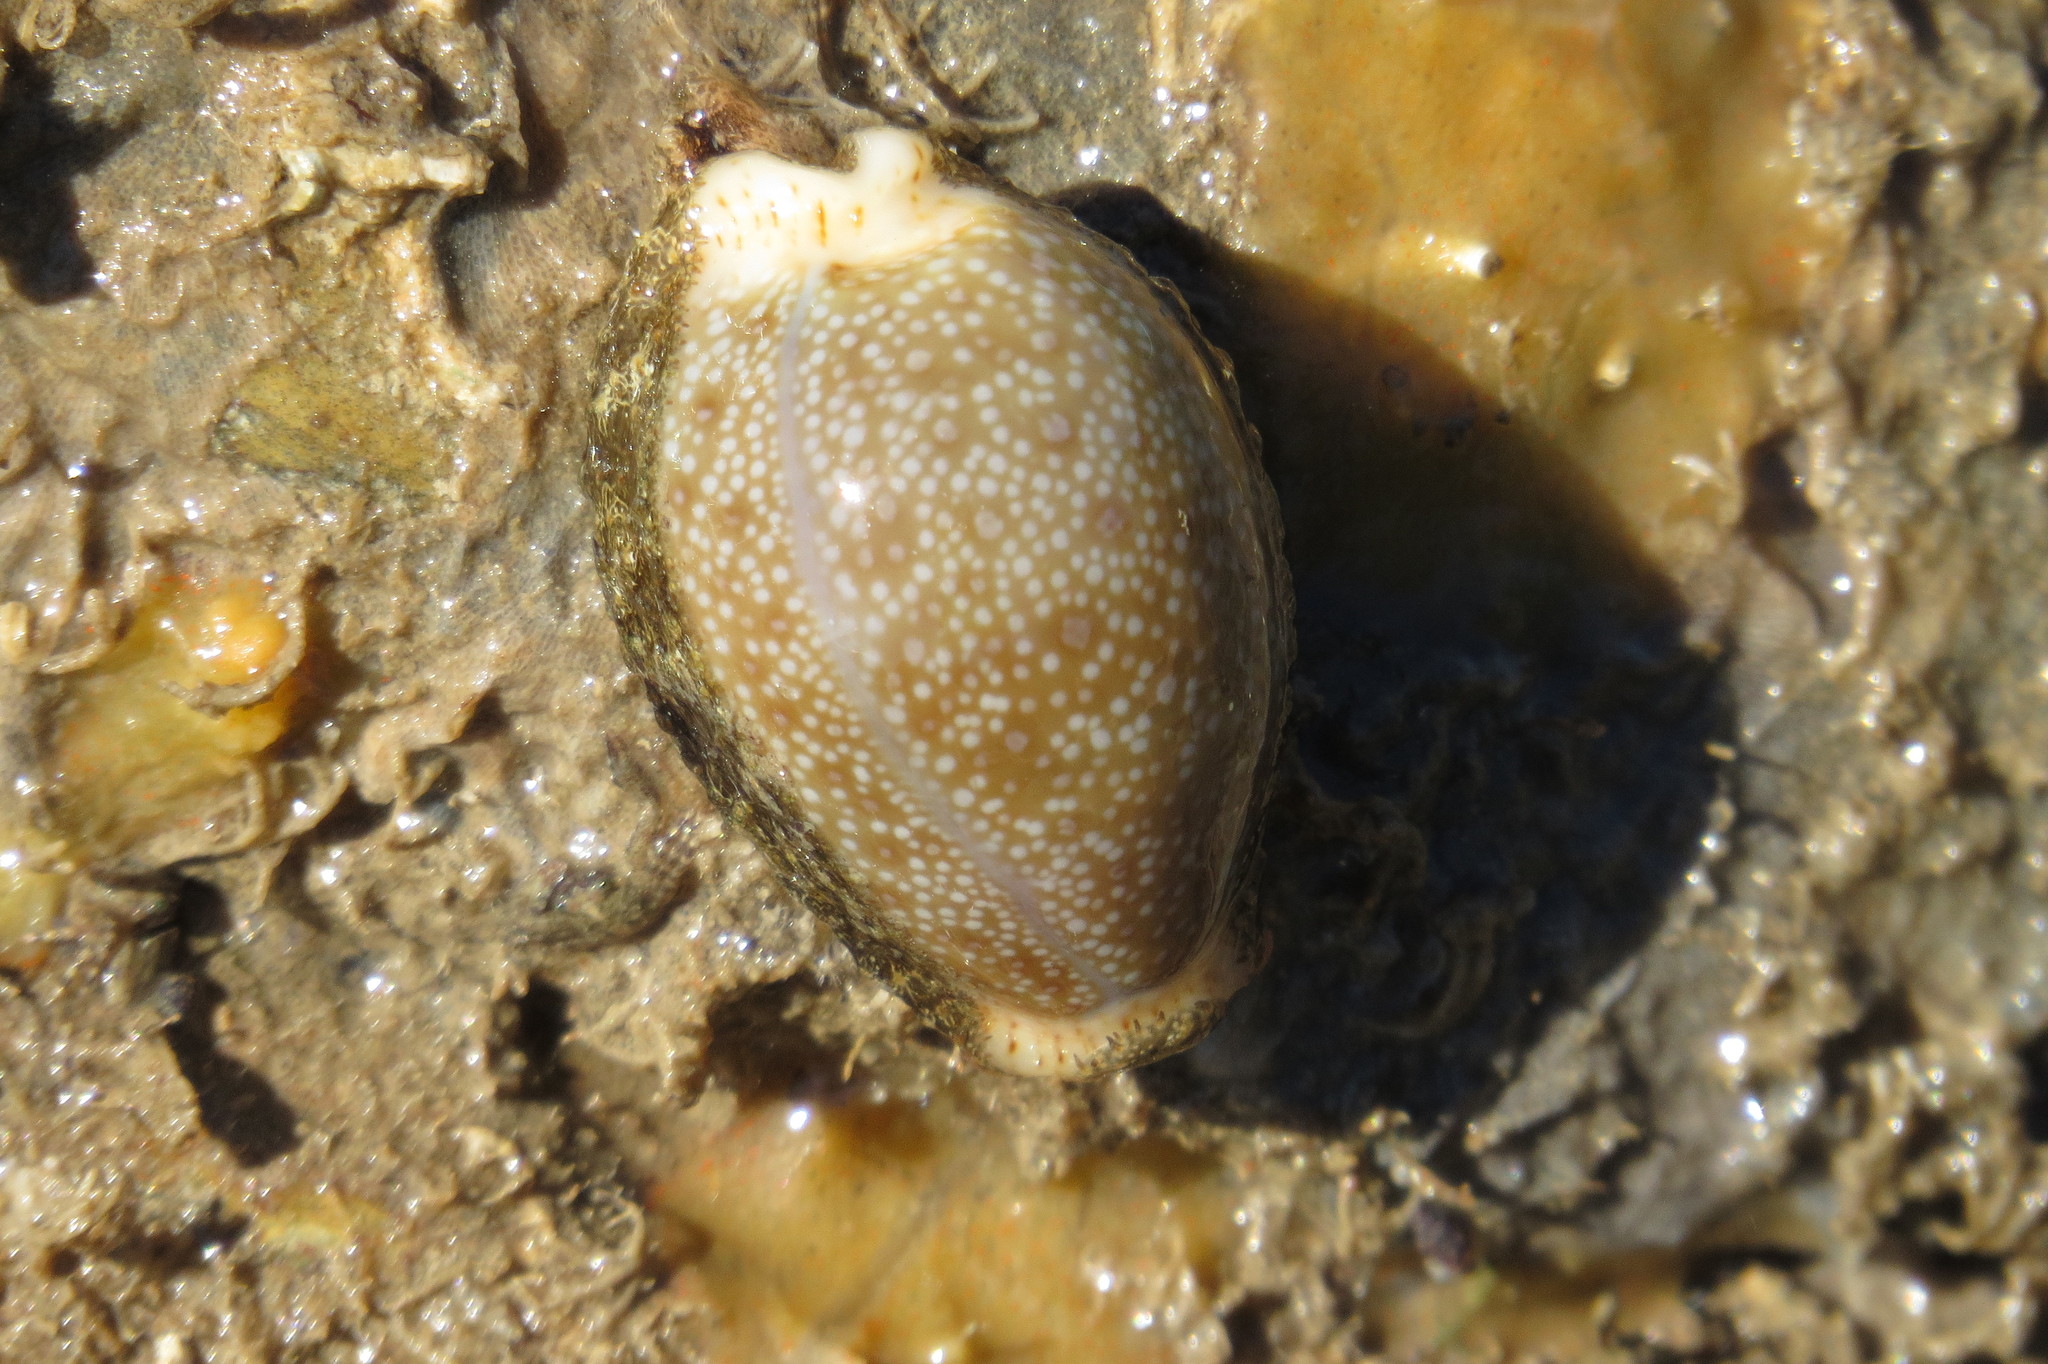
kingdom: Animalia
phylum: Mollusca
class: Gastropoda
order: Littorinimorpha
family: Cypraeidae
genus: Naria
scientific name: Naria erosa
